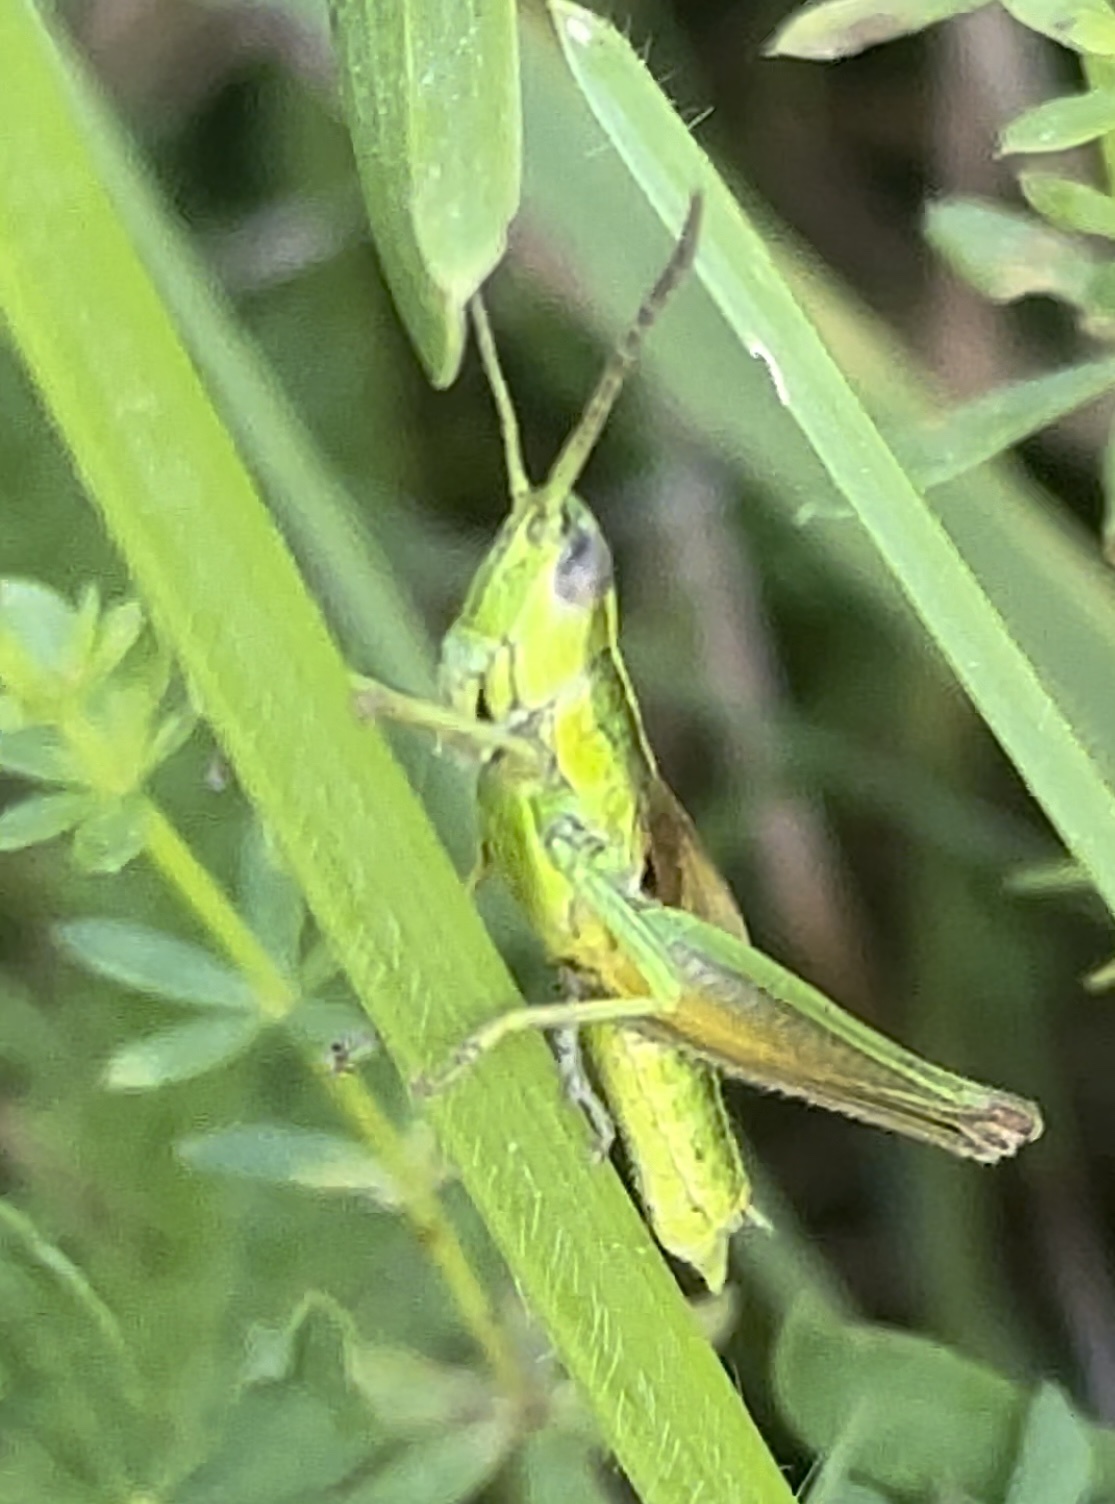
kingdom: Animalia
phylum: Arthropoda
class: Insecta
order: Orthoptera
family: Acrididae
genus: Euthystira
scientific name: Euthystira brachyptera
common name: Small gold grasshopper
